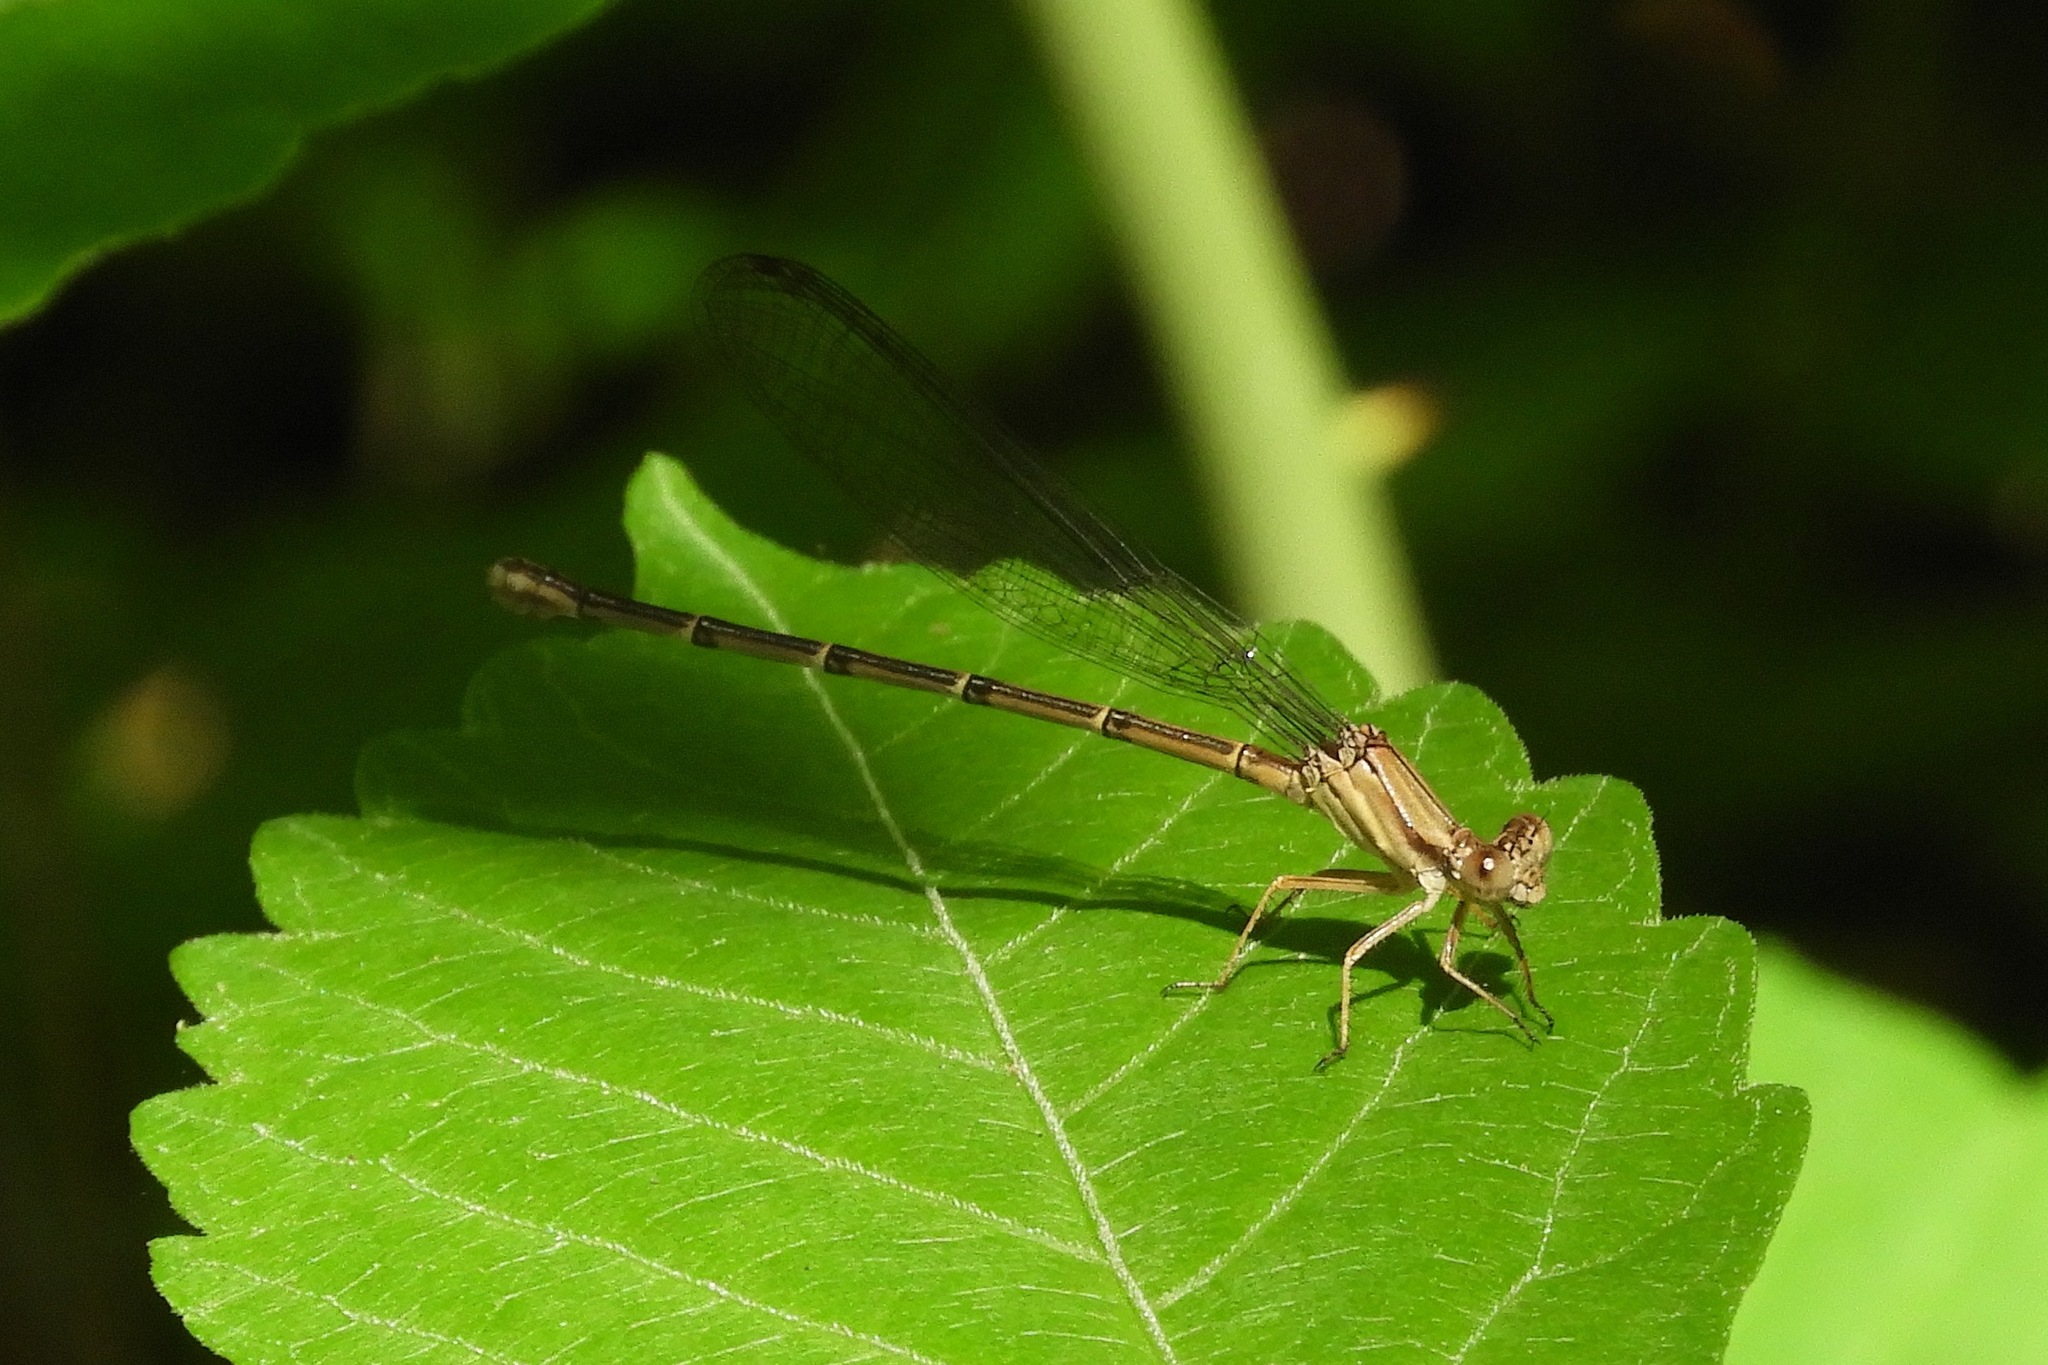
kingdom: Animalia
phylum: Arthropoda
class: Insecta
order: Odonata
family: Coenagrionidae
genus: Argia
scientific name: Argia apicalis
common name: Blue-fronted dancer
